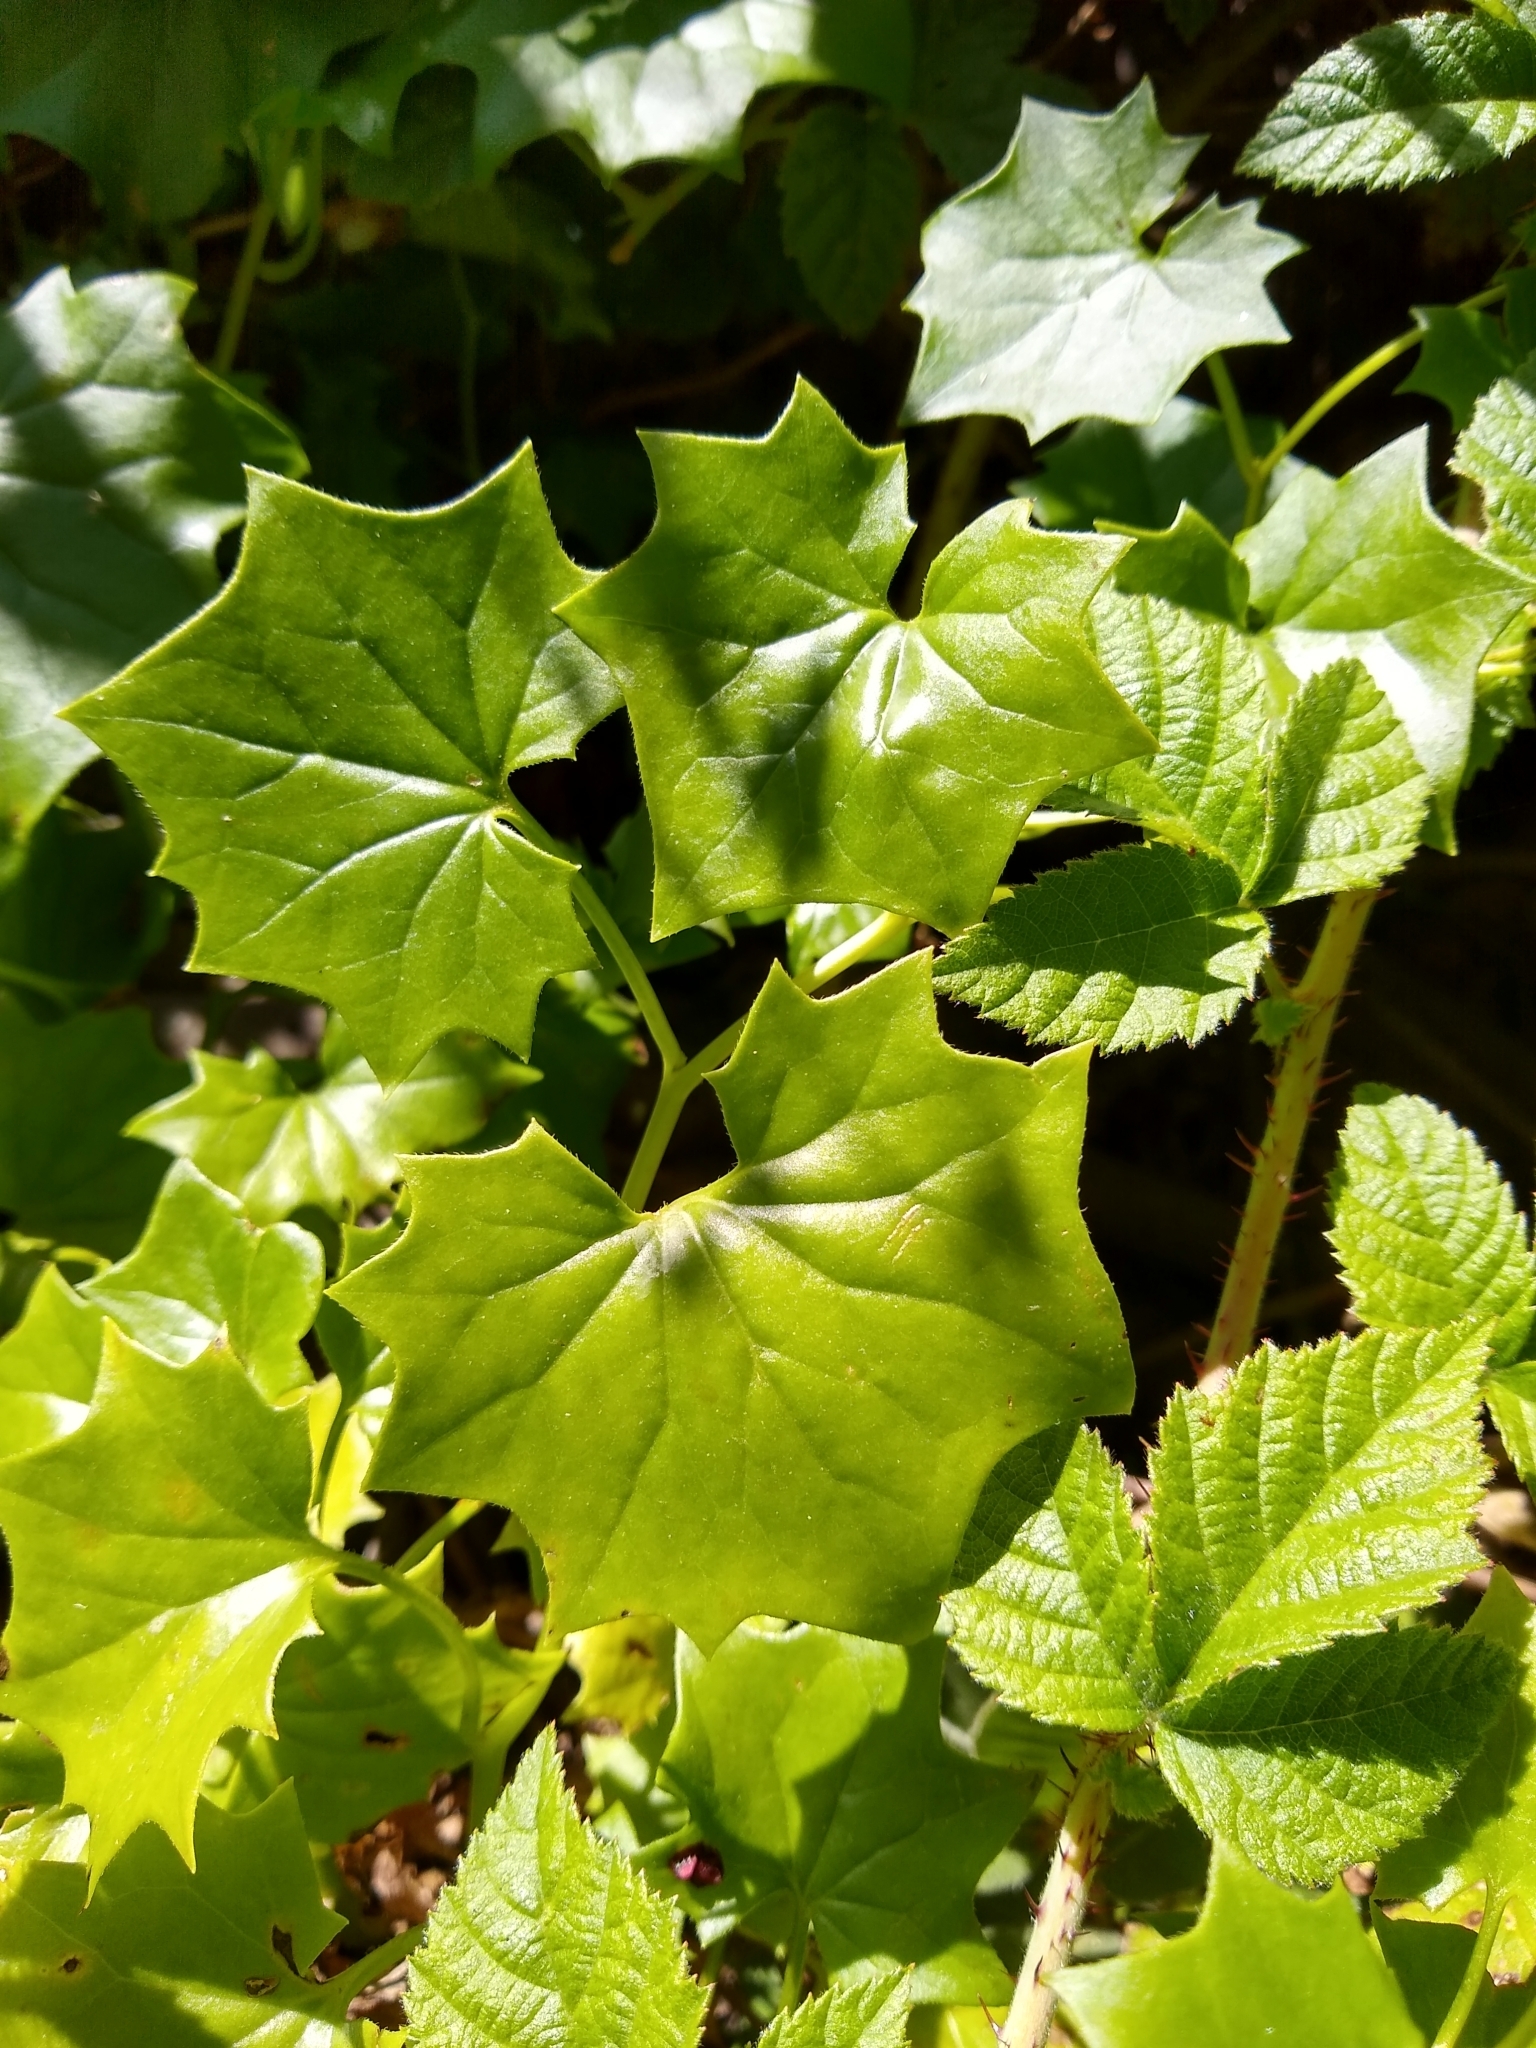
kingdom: Plantae
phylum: Tracheophyta
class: Magnoliopsida
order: Asterales
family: Asteraceae
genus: Delairea
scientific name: Delairea odorata
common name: Cape-ivy
